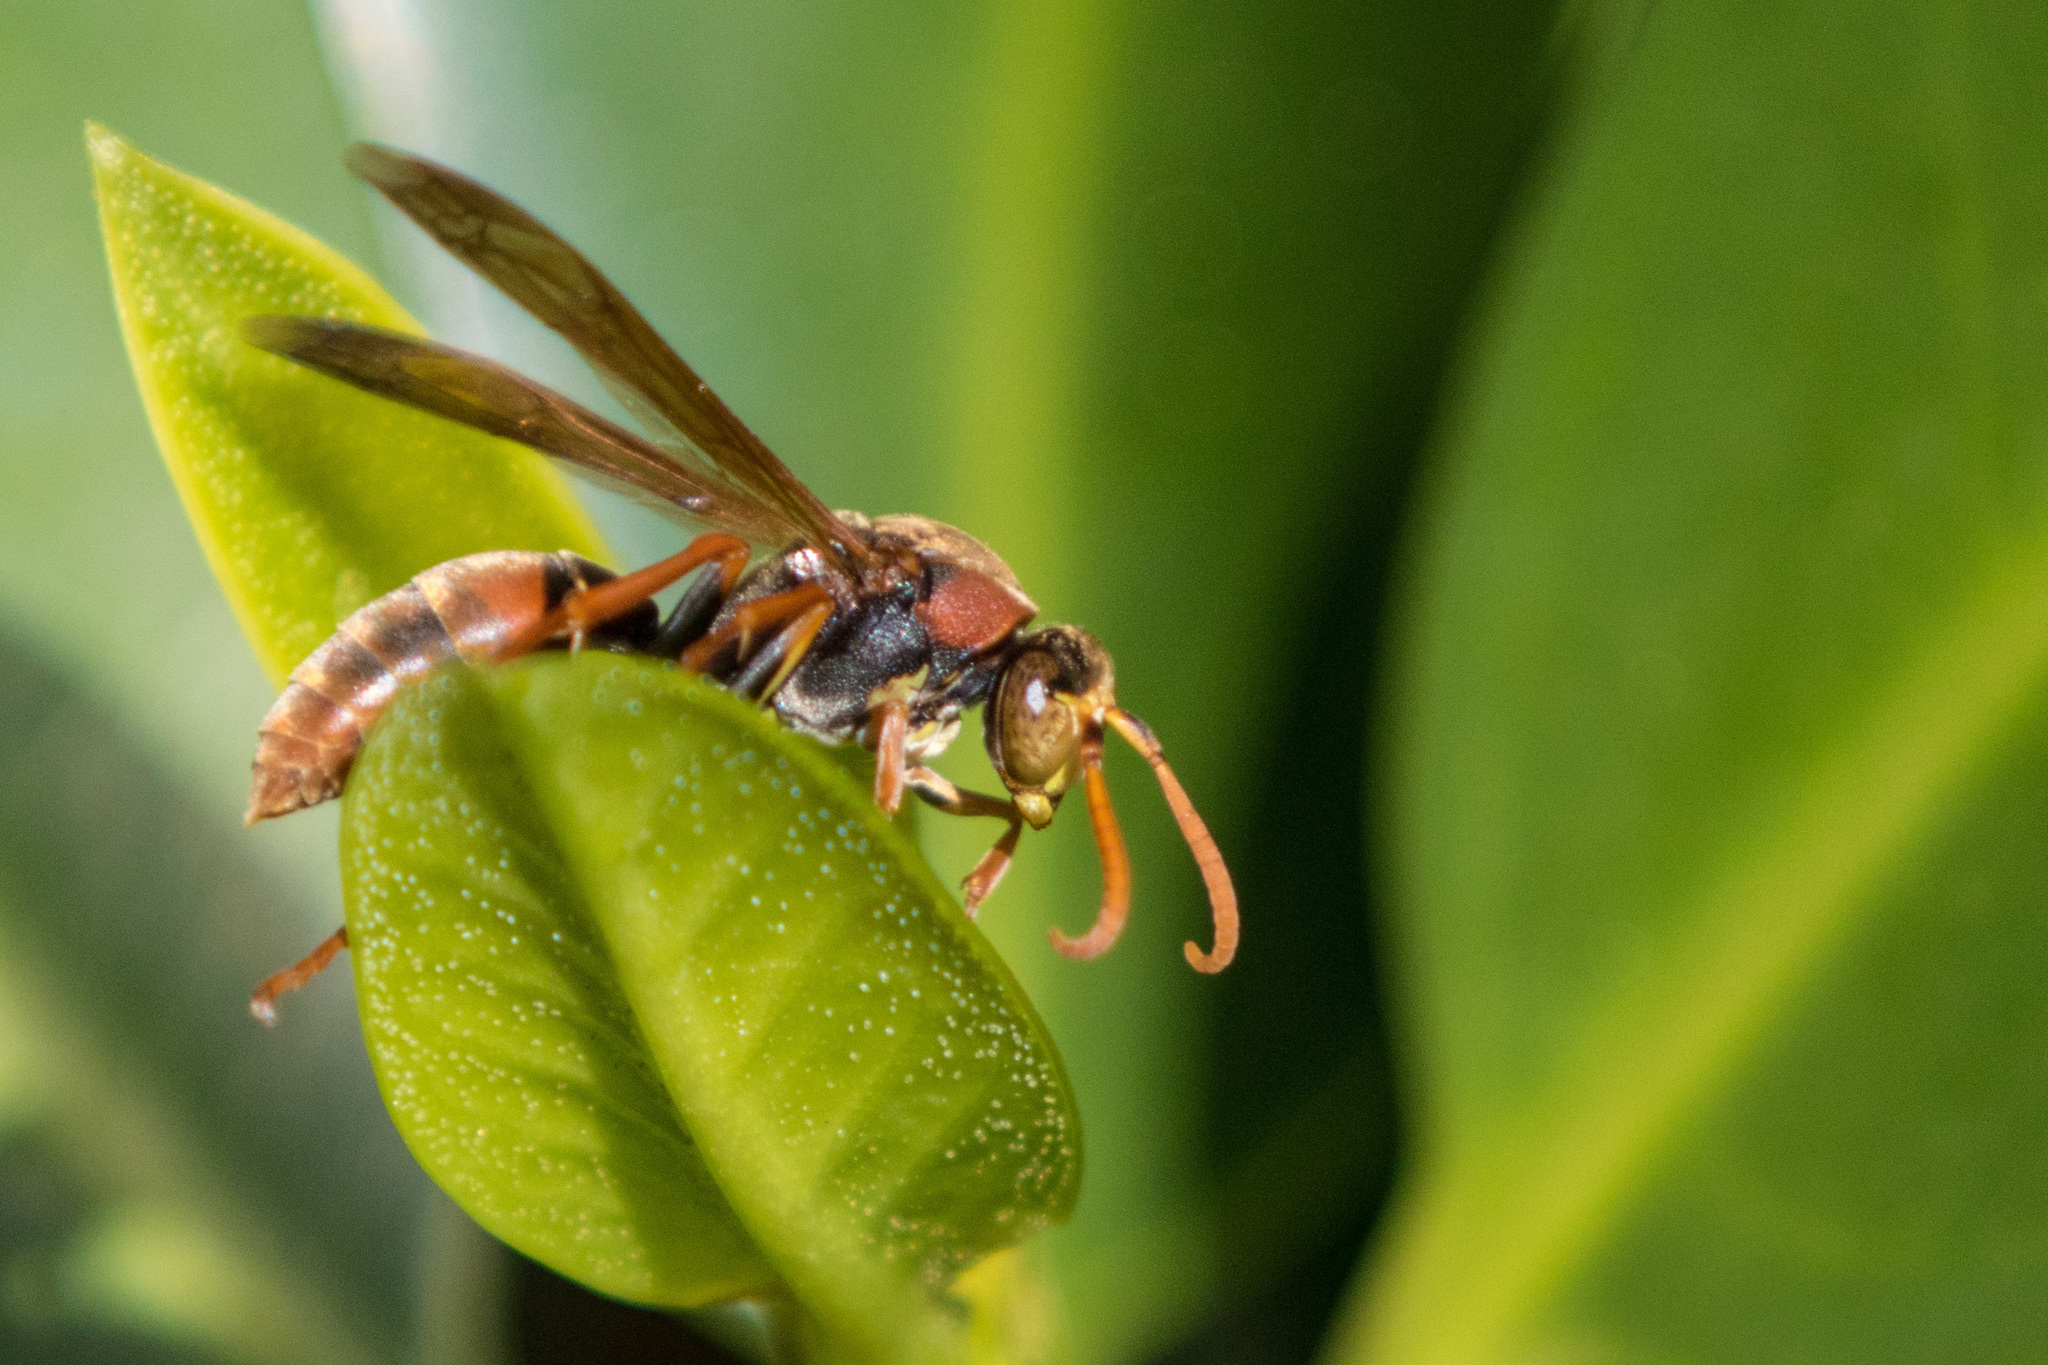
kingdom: Animalia
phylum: Arthropoda
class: Insecta
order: Hymenoptera
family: Eumenidae
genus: Polistes
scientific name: Polistes humilis
